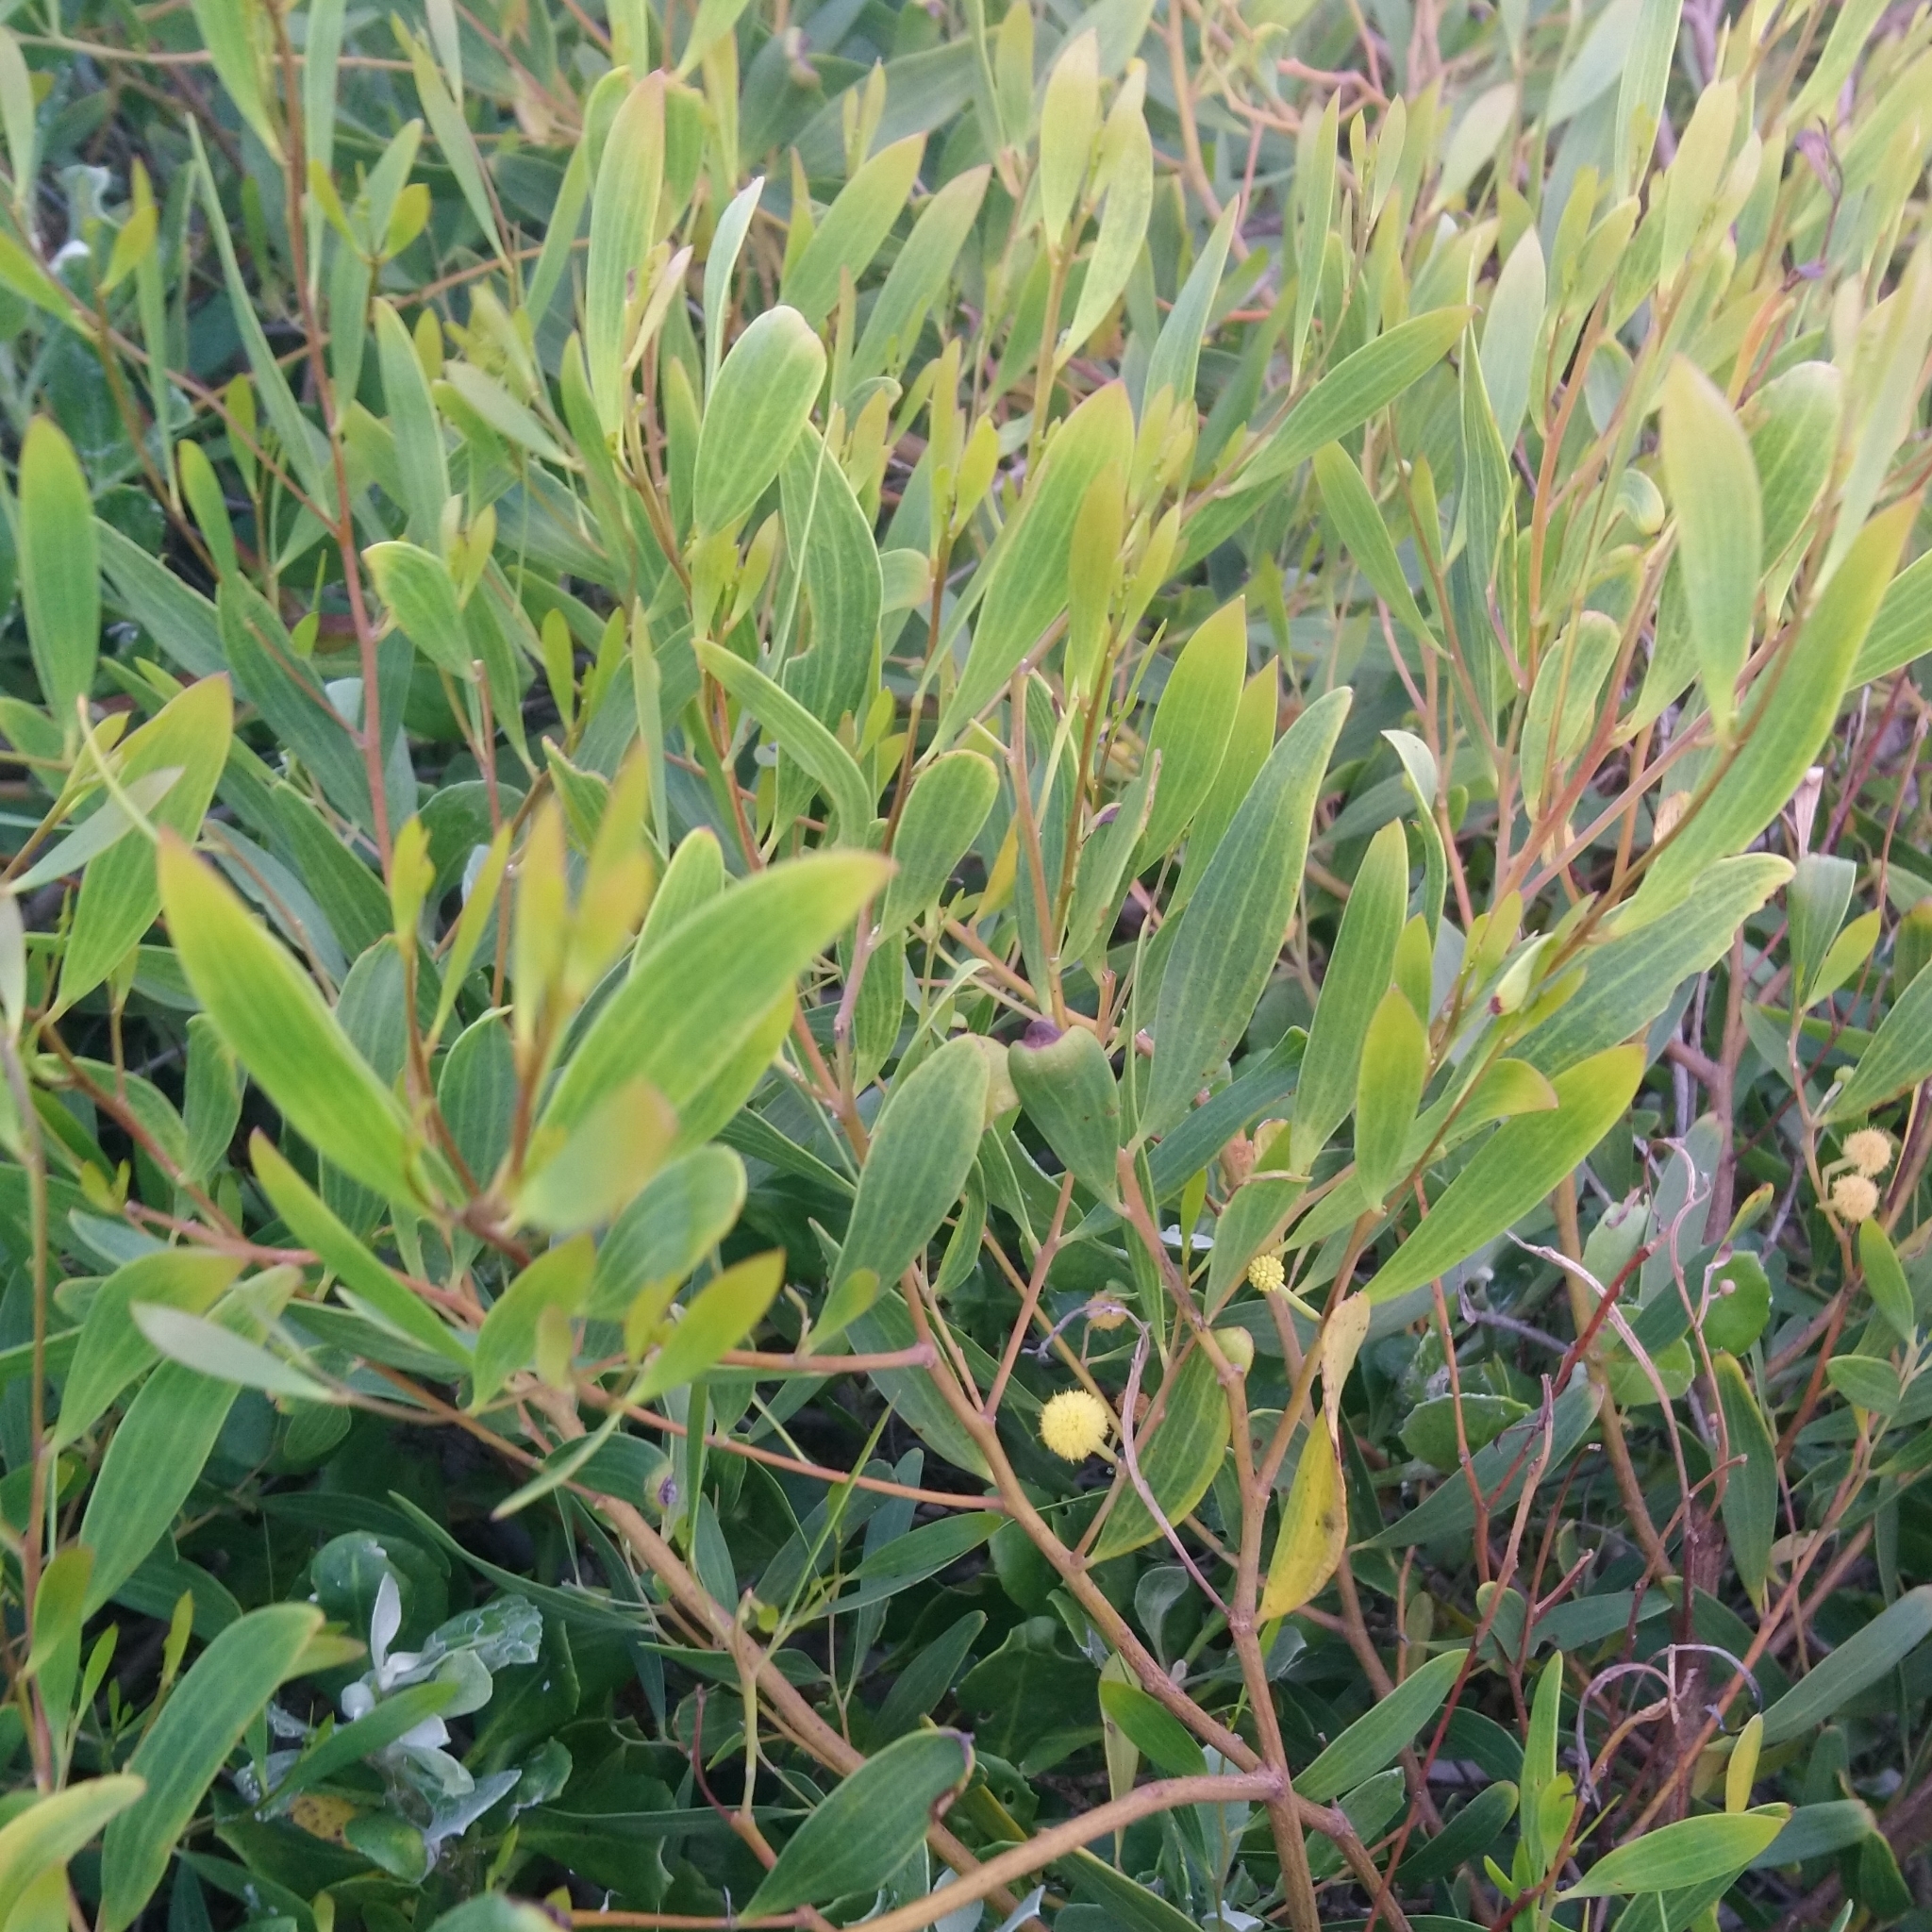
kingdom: Plantae
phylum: Tracheophyta
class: Magnoliopsida
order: Fabales
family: Fabaceae
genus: Acacia
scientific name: Acacia cyclops
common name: Coastal wattle
